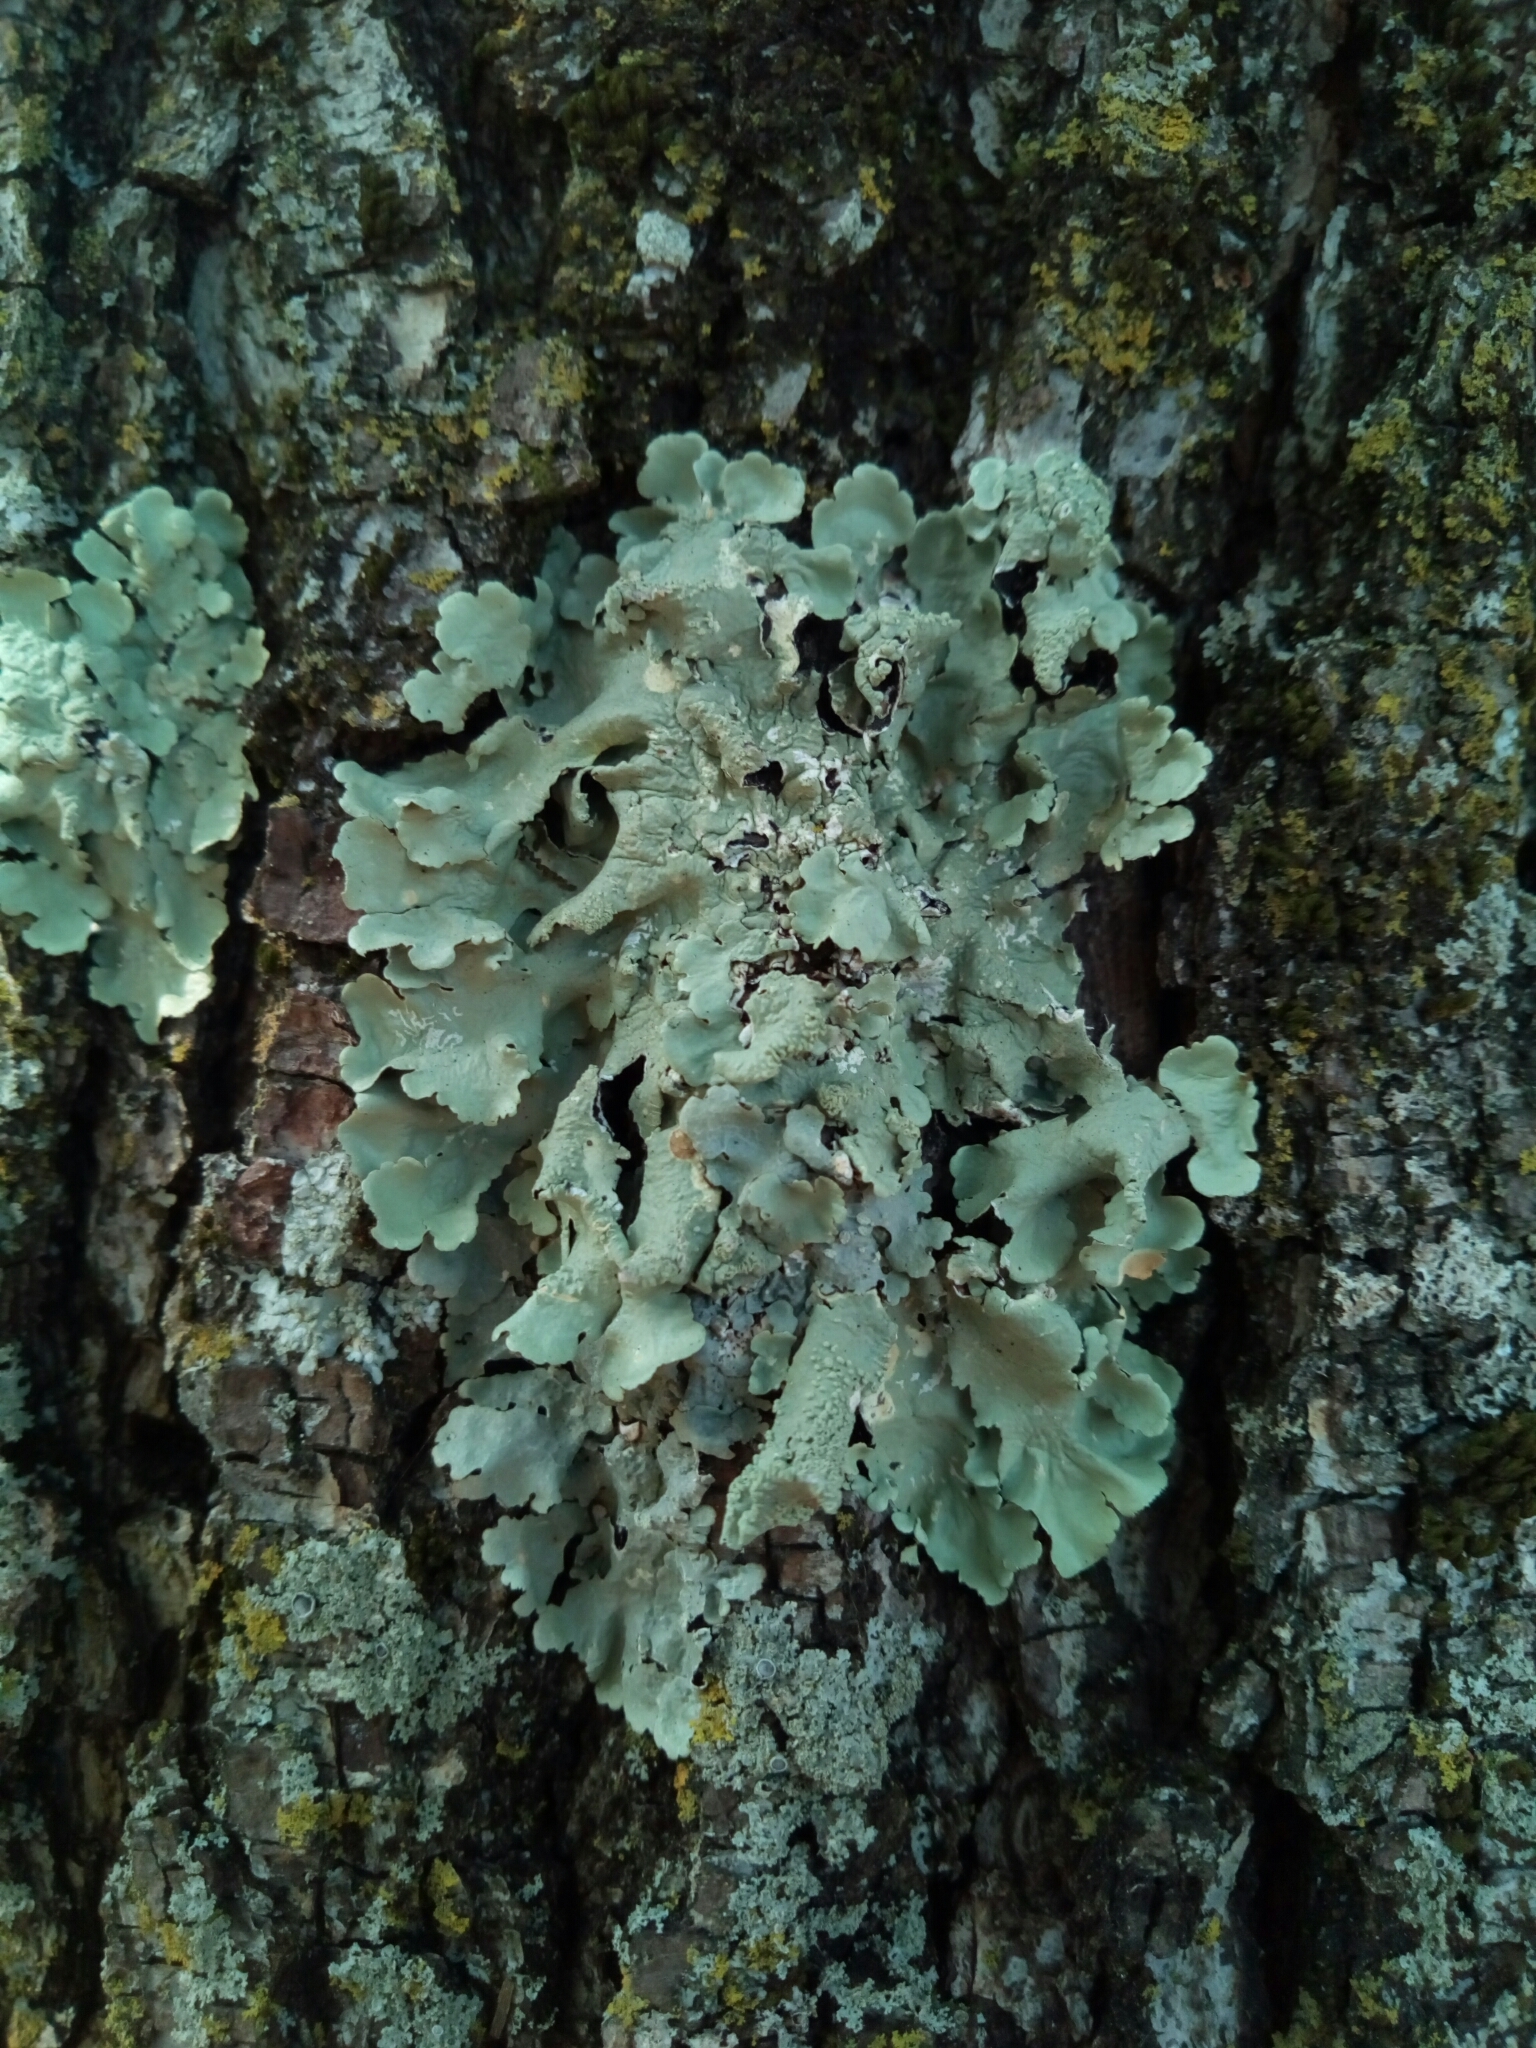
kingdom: Fungi
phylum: Ascomycota
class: Lecanoromycetes
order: Lecanorales
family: Parmeliaceae
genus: Flavoparmelia
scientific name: Flavoparmelia caperata
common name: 40-mile per hour lichen
